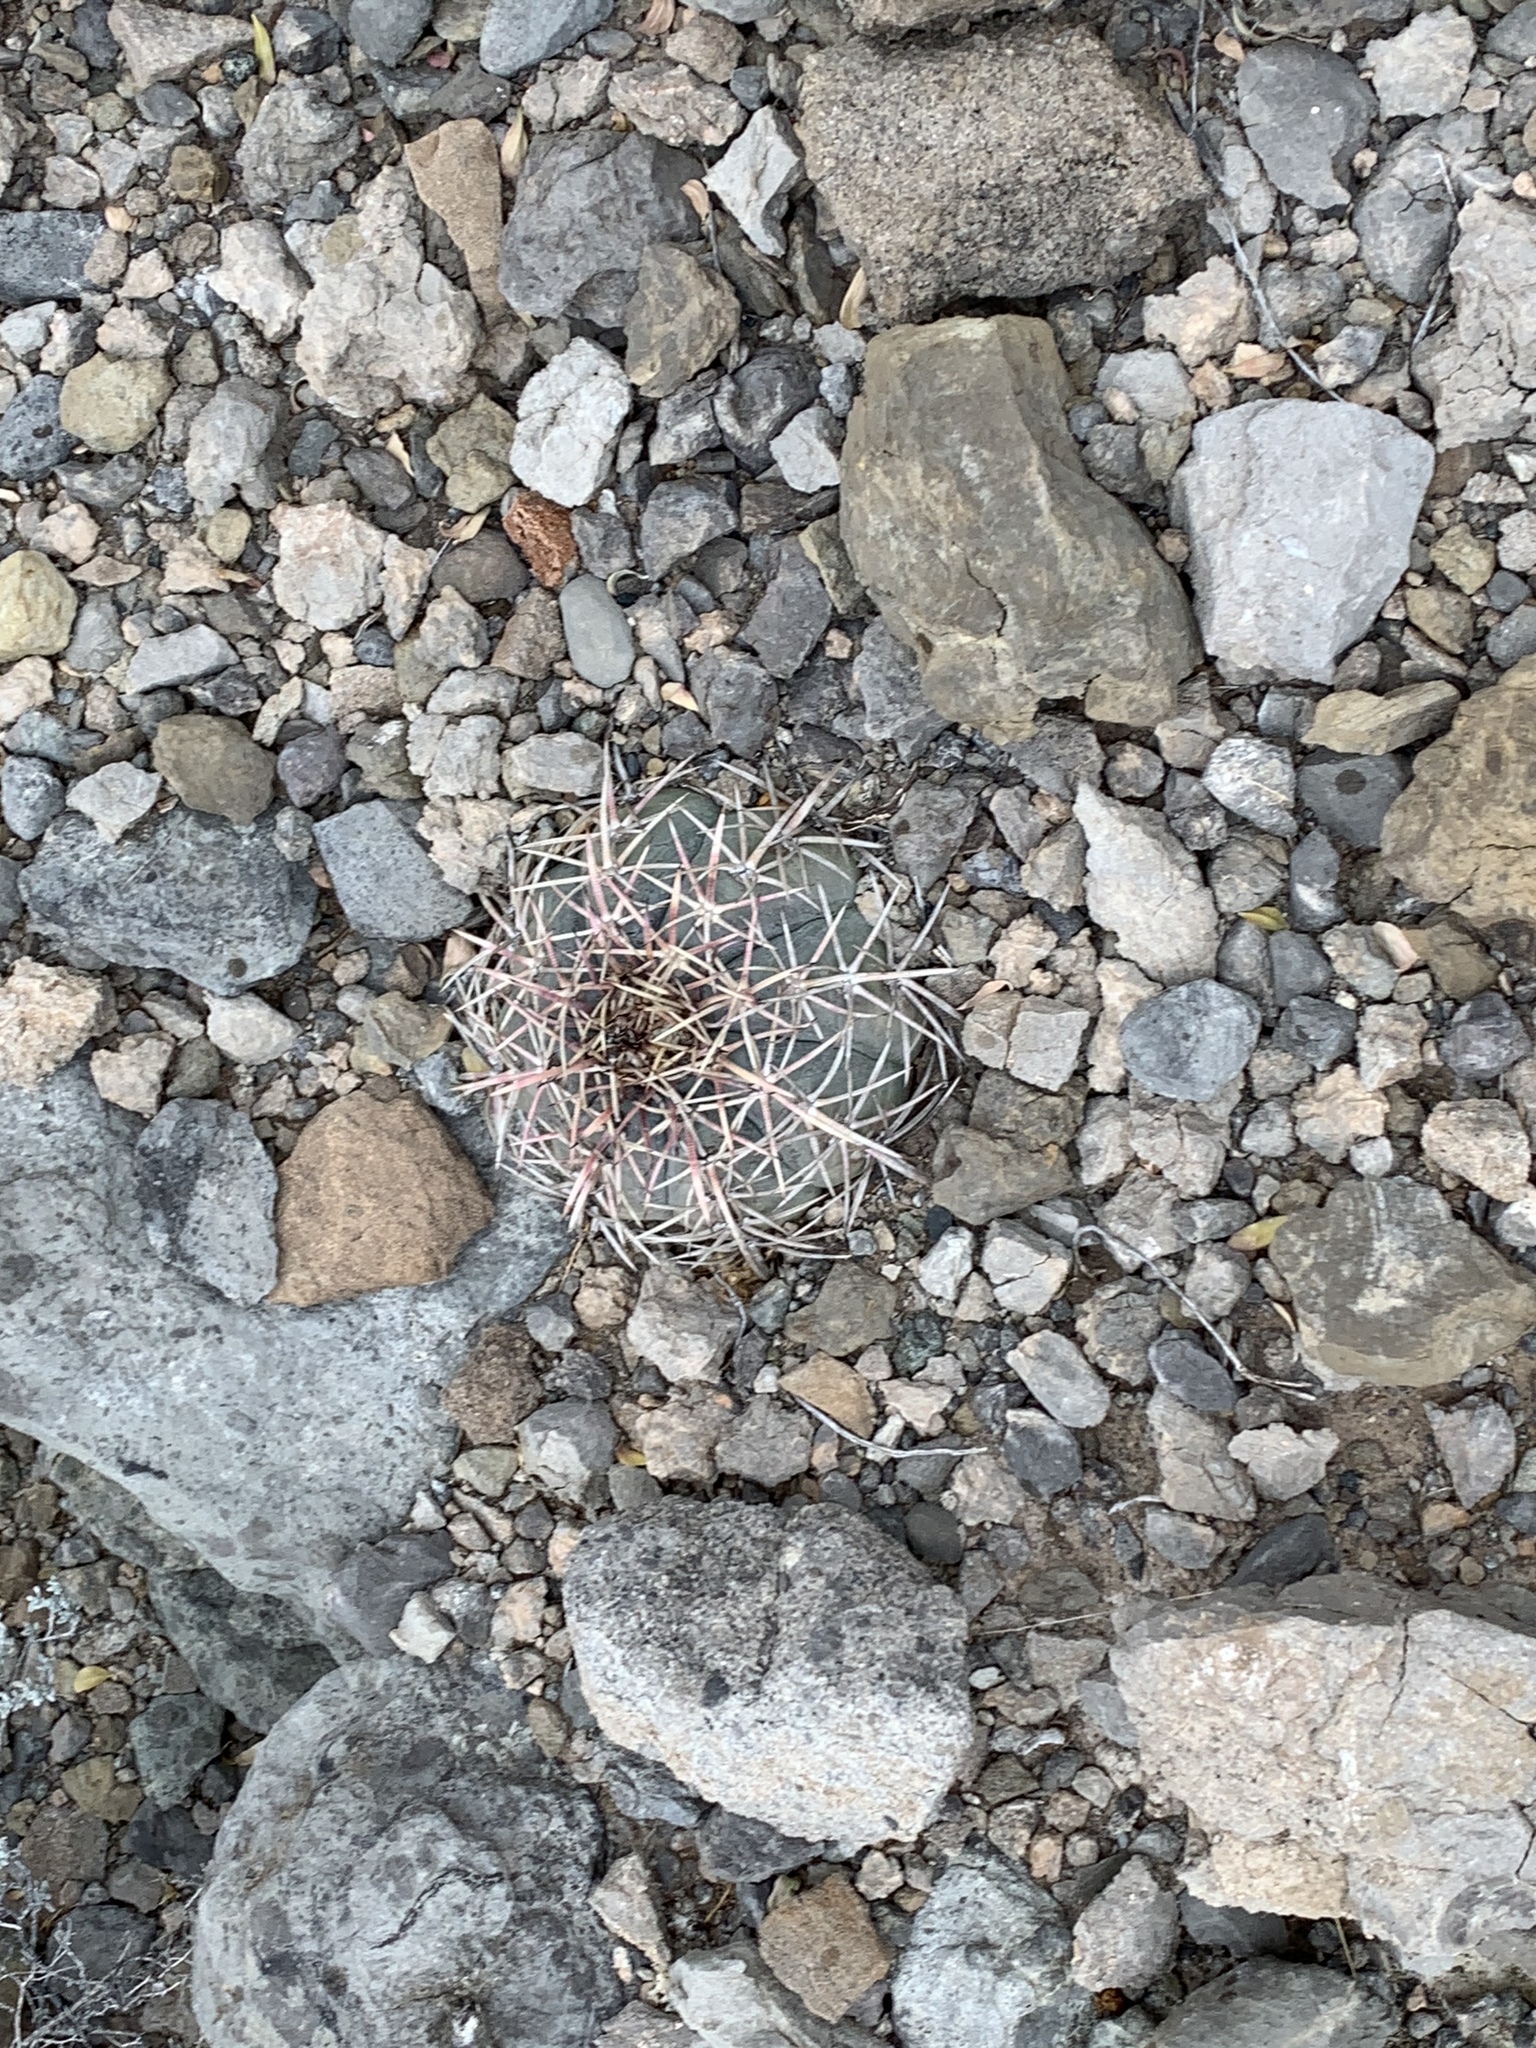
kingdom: Plantae
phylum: Tracheophyta
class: Magnoliopsida
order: Caryophyllales
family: Cactaceae
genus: Echinocactus
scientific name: Echinocactus horizonthalonius
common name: Devilshead
